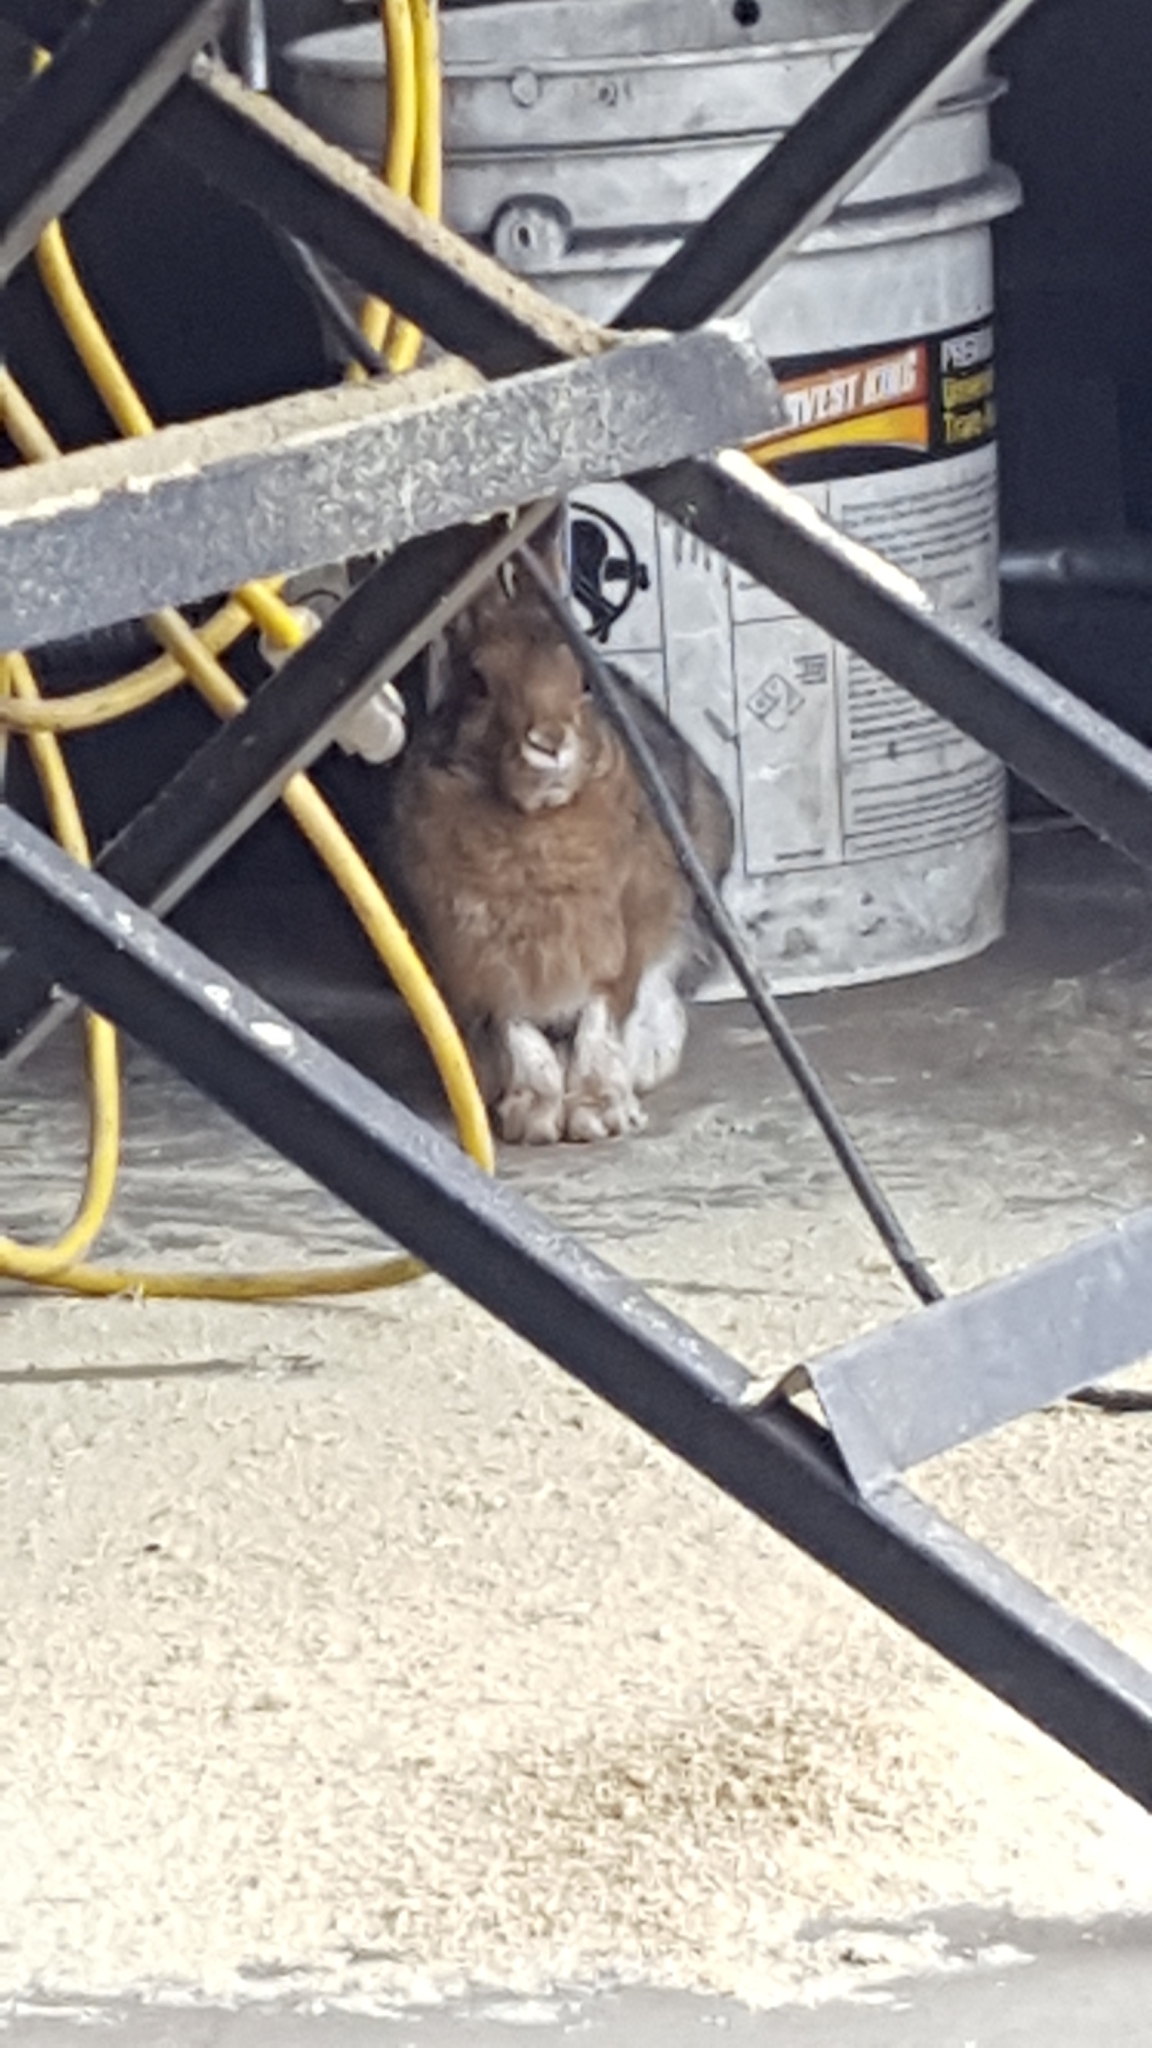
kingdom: Animalia
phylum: Chordata
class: Mammalia
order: Lagomorpha
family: Leporidae
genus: Lepus
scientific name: Lepus americanus
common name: Snowshoe hare
